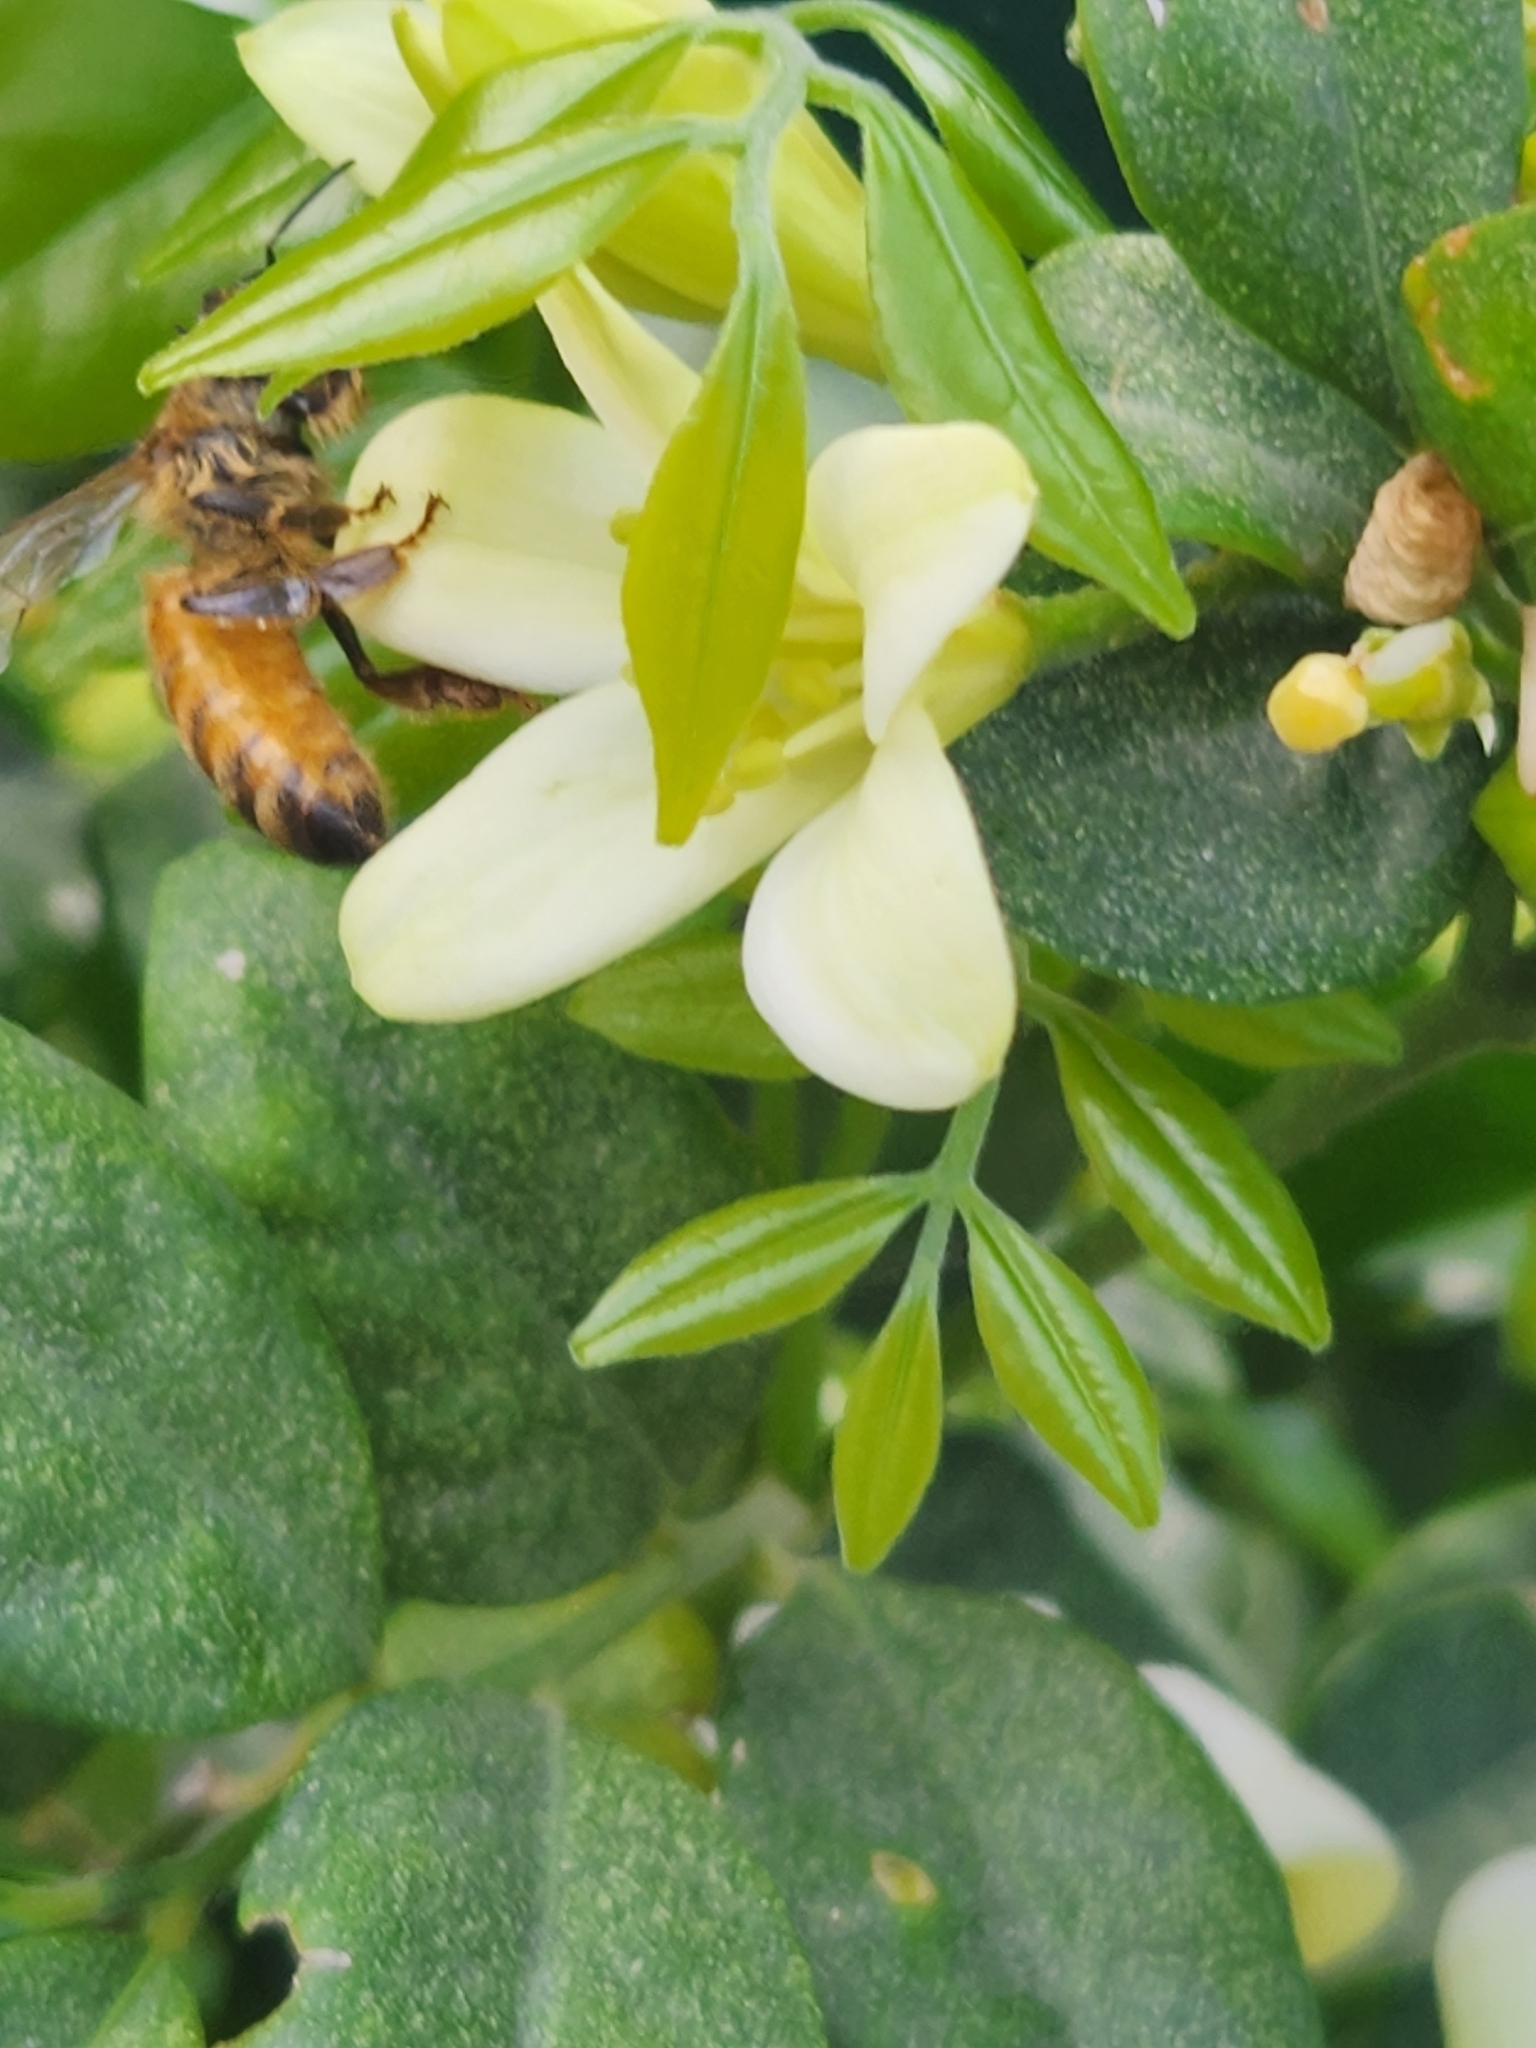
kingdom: Animalia
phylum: Arthropoda
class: Insecta
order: Hymenoptera
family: Apidae
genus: Apis
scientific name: Apis mellifera
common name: Honey bee
